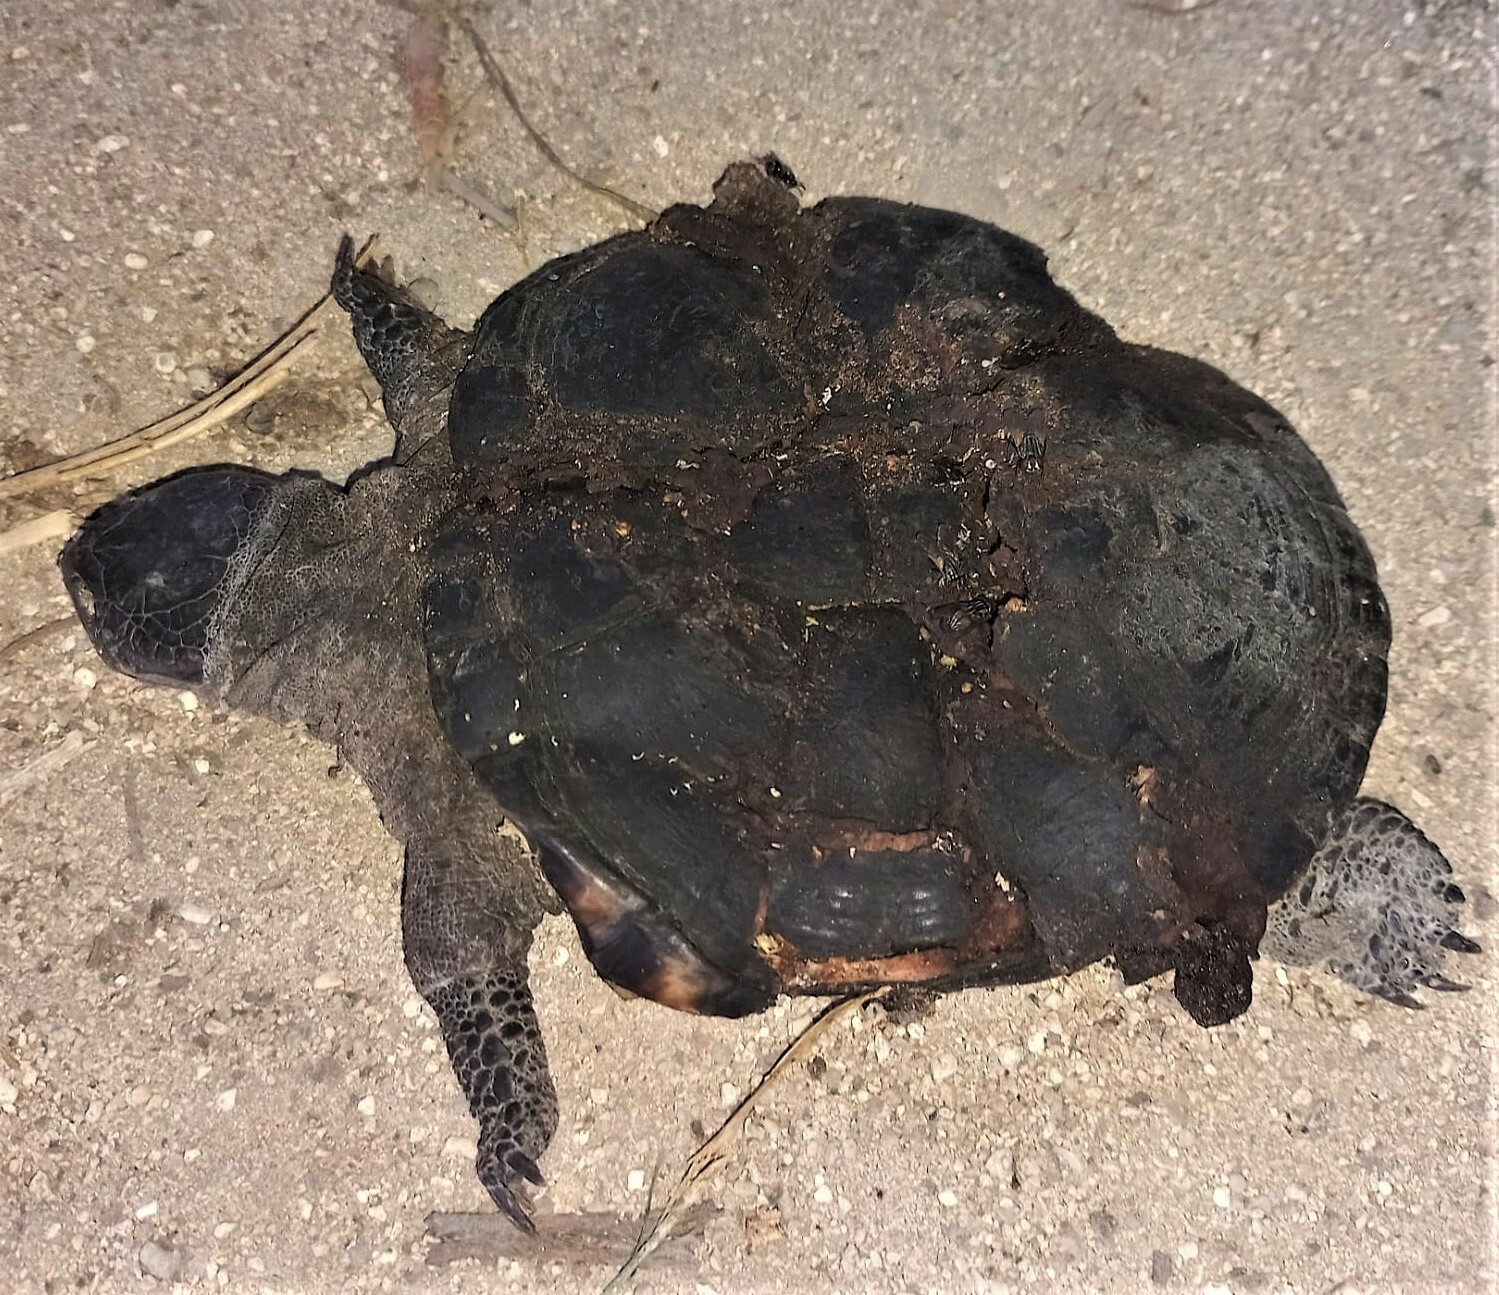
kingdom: Animalia
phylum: Chordata
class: Testudines
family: Pelomedusidae
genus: Pelusios
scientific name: Pelusios subniger
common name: East african black mud turtle
